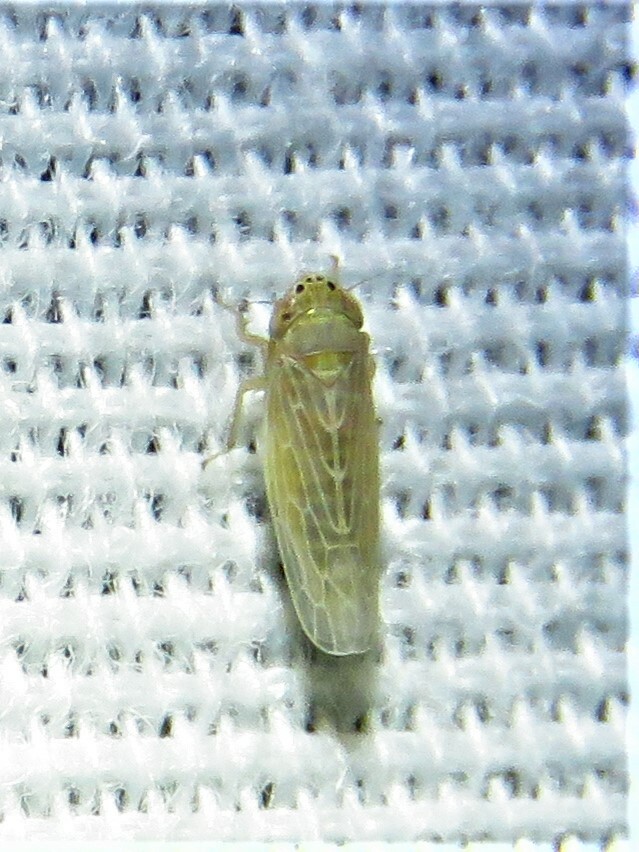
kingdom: Animalia
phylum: Arthropoda
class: Insecta
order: Hemiptera
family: Cicadellidae
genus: Graminella
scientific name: Graminella sonora
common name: Lesser lawn leafhopper
